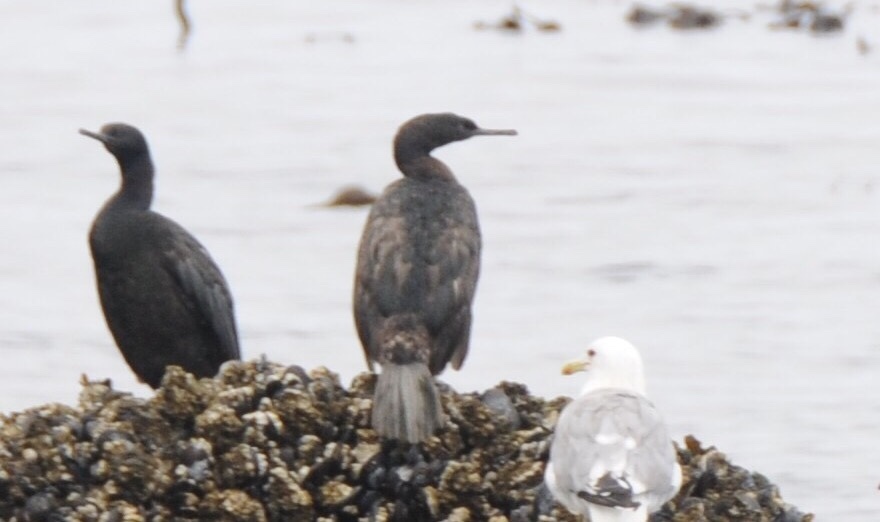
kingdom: Animalia
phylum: Chordata
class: Aves
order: Suliformes
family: Phalacrocoracidae
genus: Phalacrocorax
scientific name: Phalacrocorax pelagicus
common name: Pelagic cormorant
